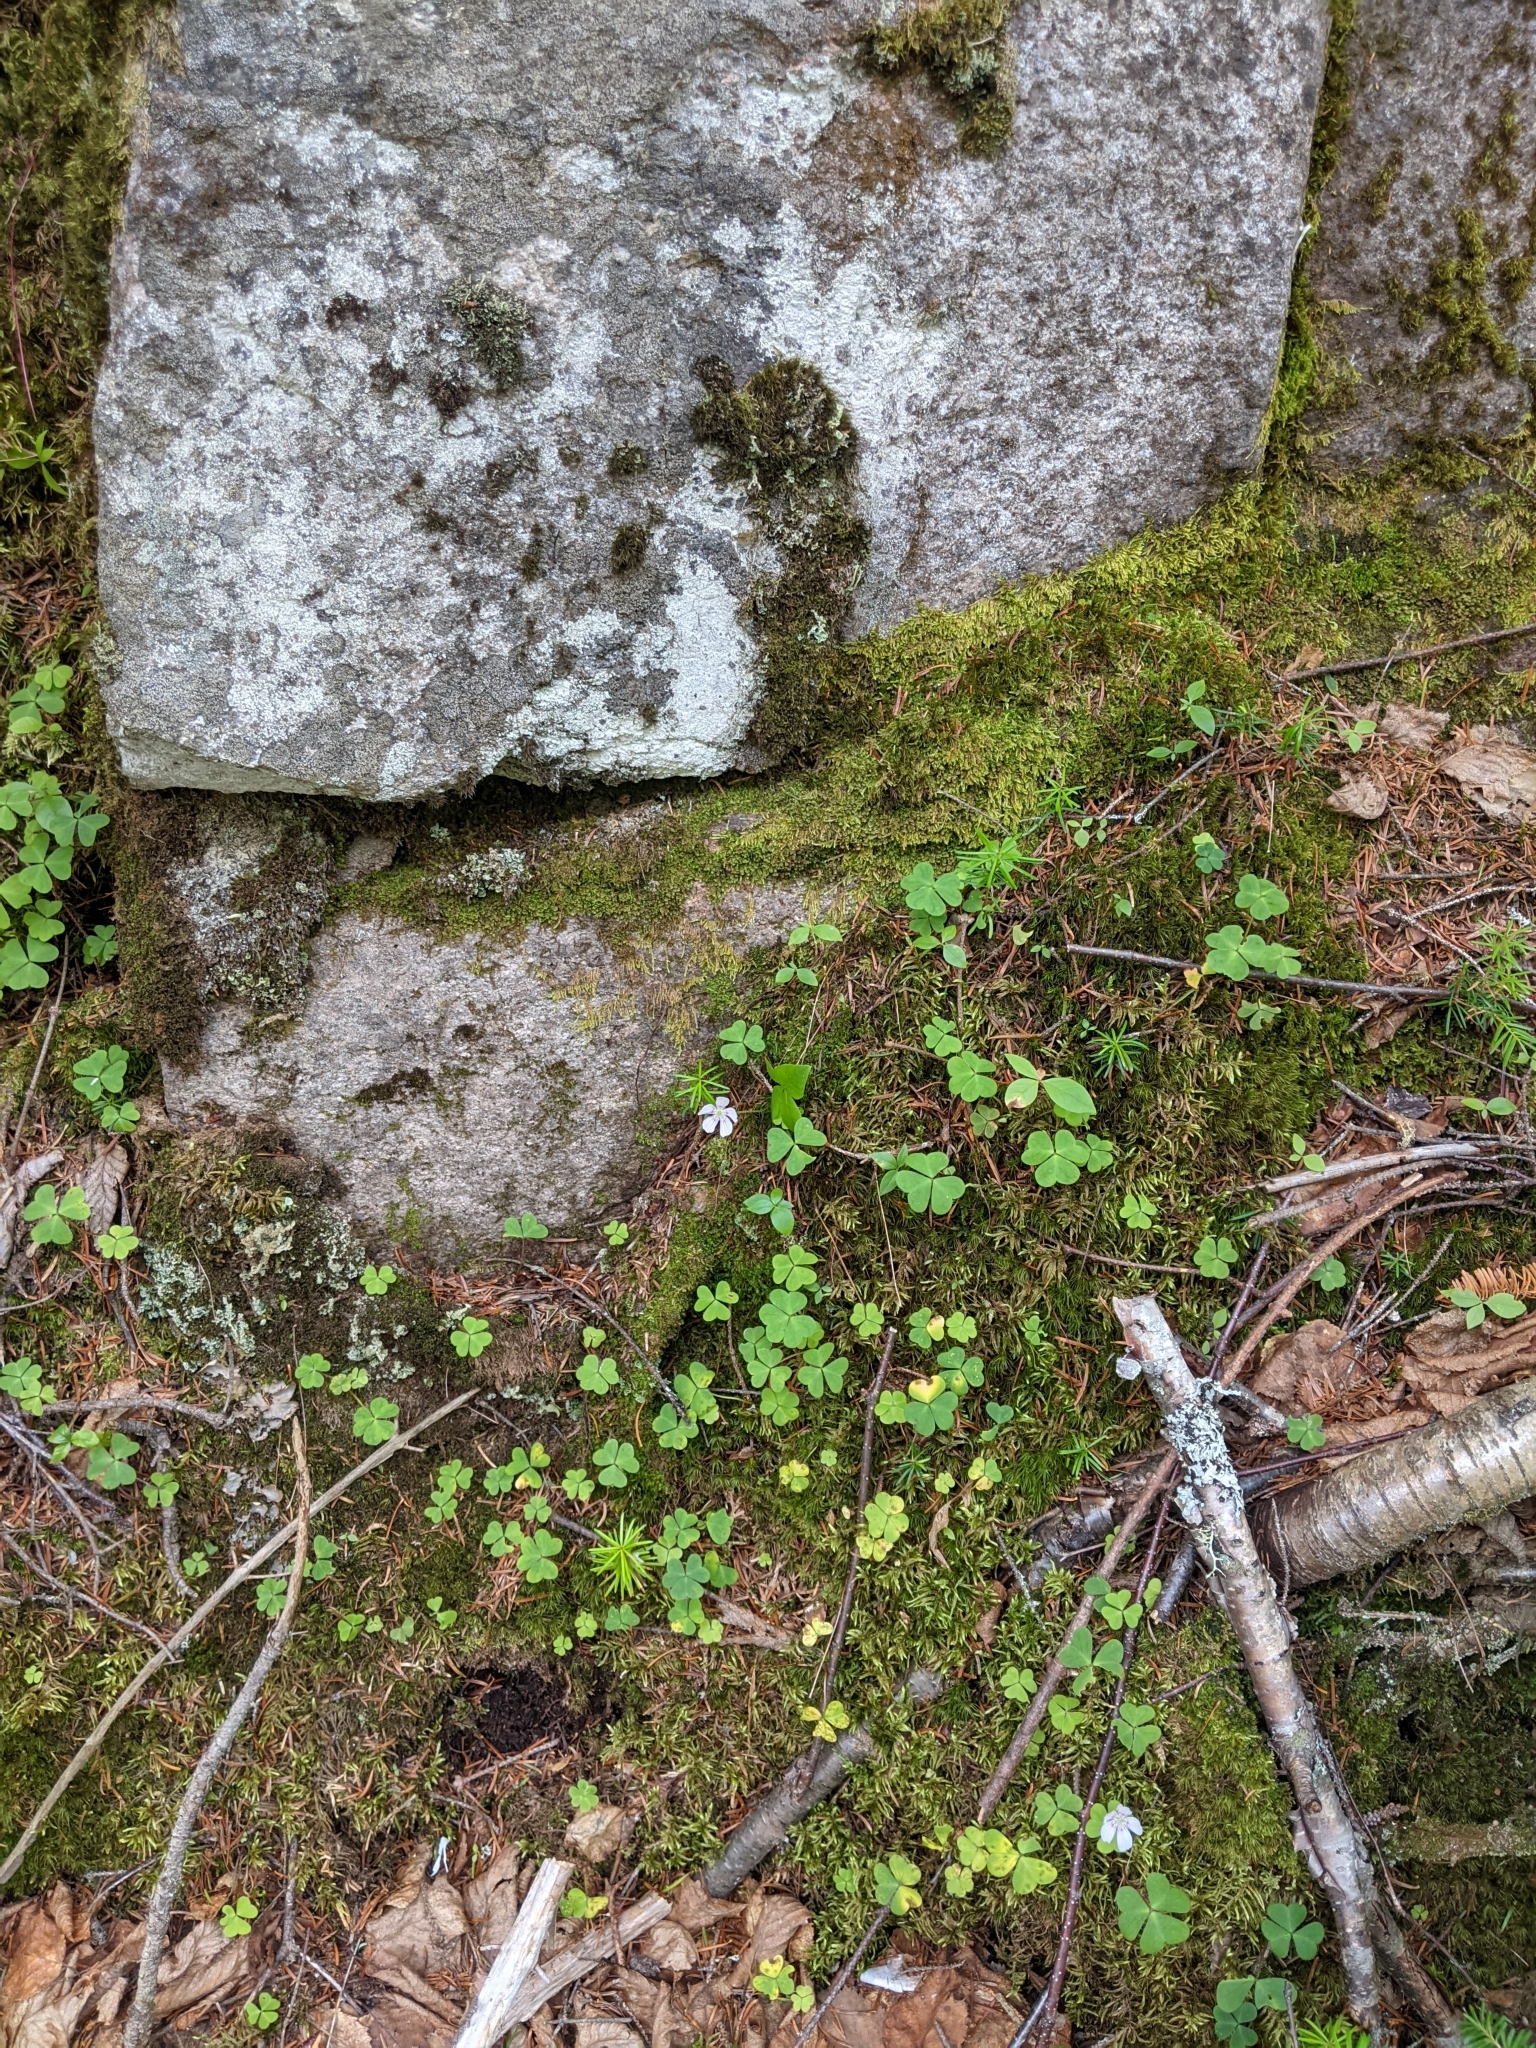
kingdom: Plantae
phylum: Tracheophyta
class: Magnoliopsida
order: Oxalidales
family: Oxalidaceae
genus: Oxalis
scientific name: Oxalis montana
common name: American wood-sorrel
